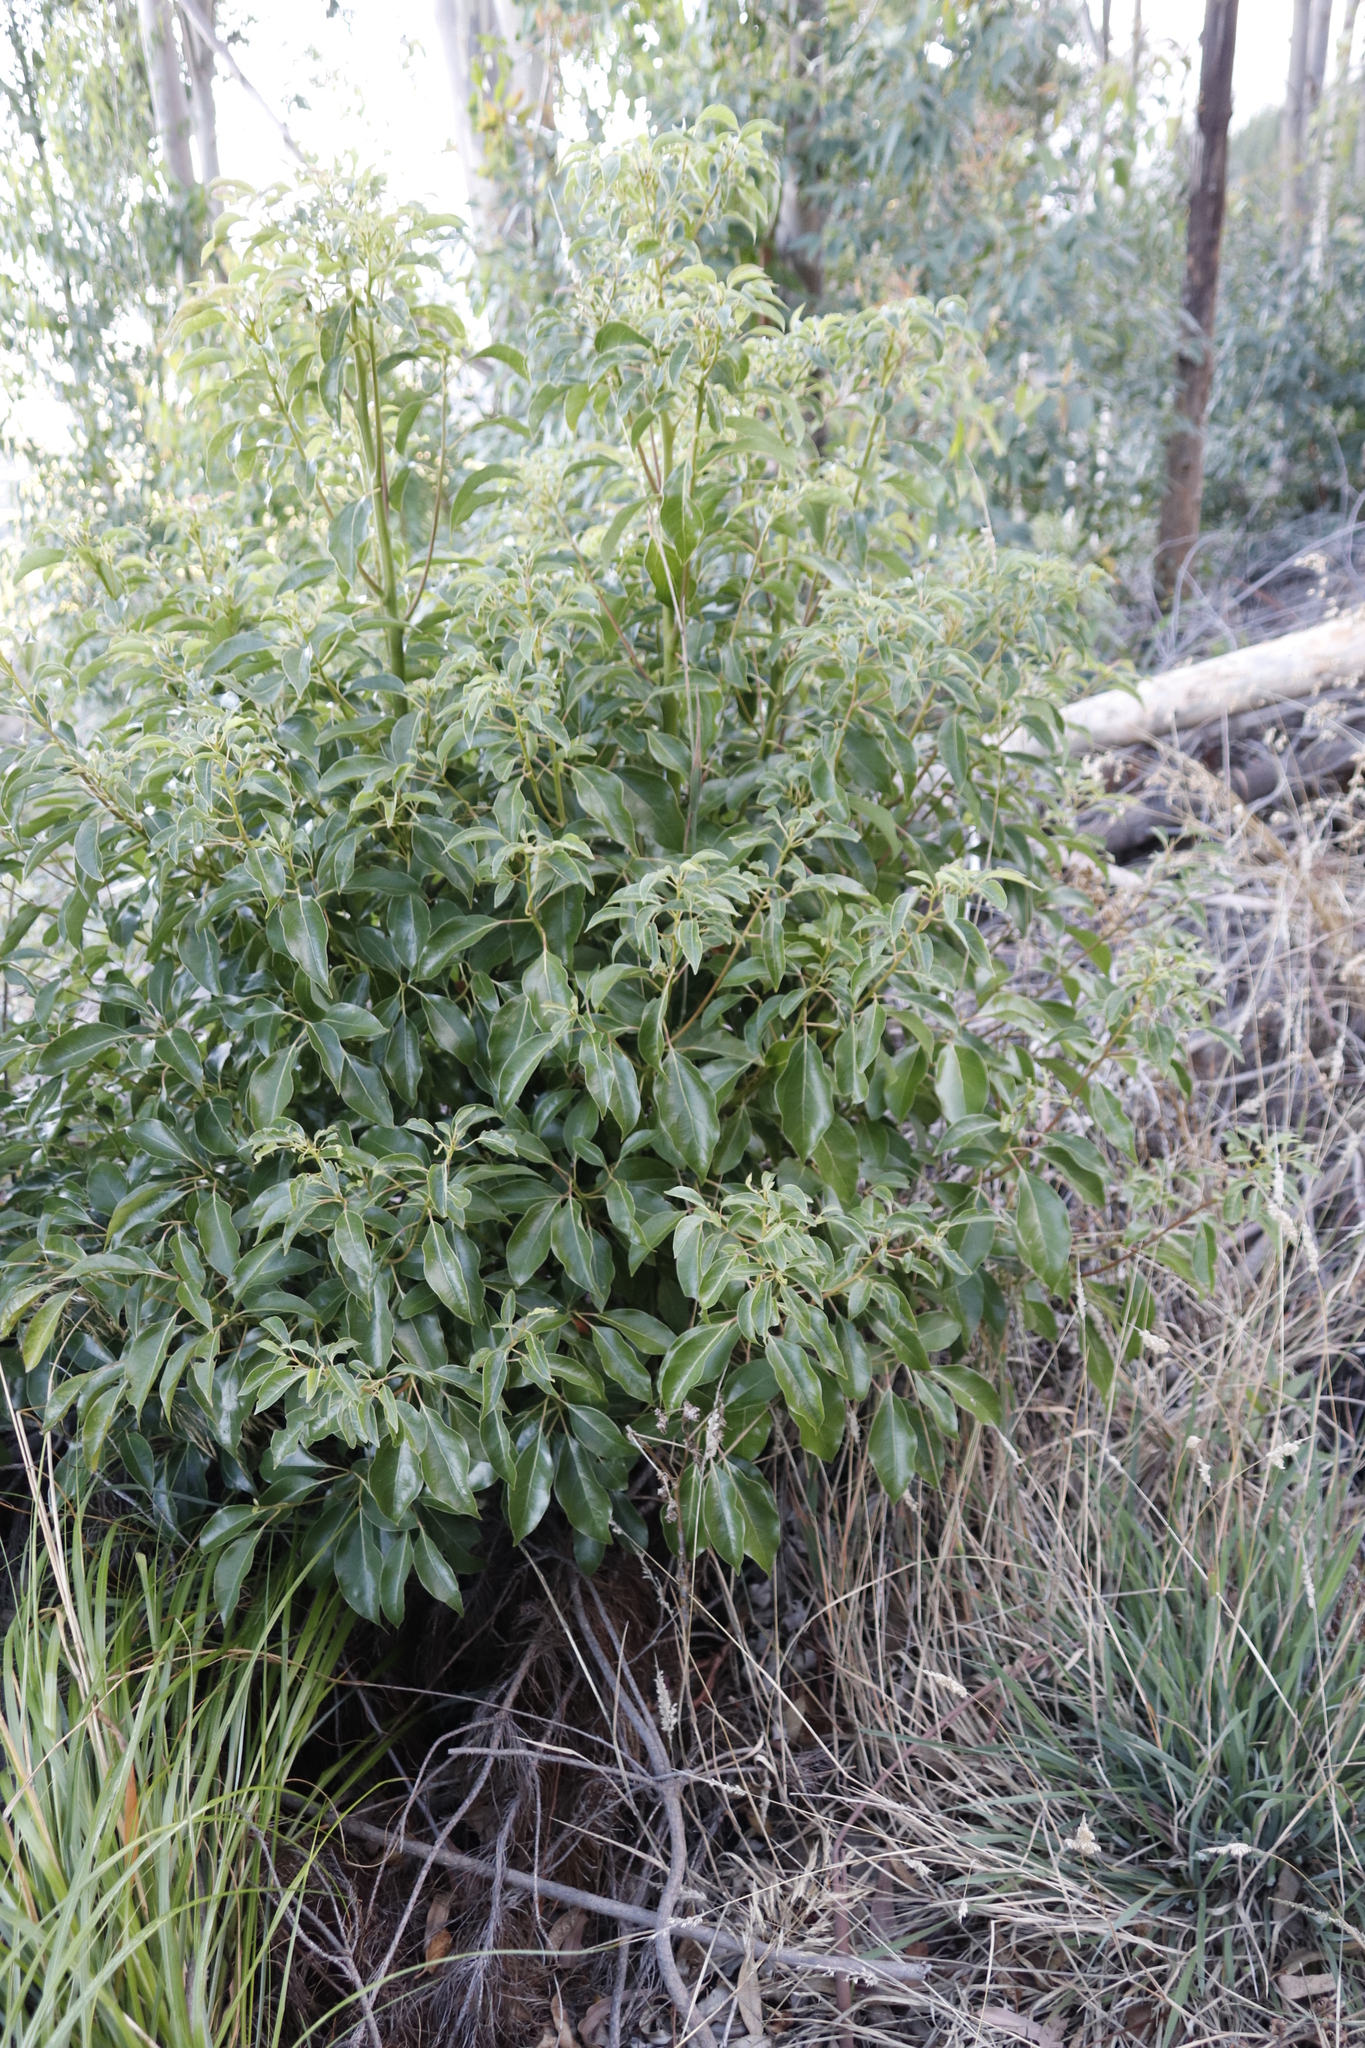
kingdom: Plantae
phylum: Tracheophyta
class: Magnoliopsida
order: Laurales
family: Lauraceae
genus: Cinnamomum
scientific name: Cinnamomum camphora
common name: Camphortree
